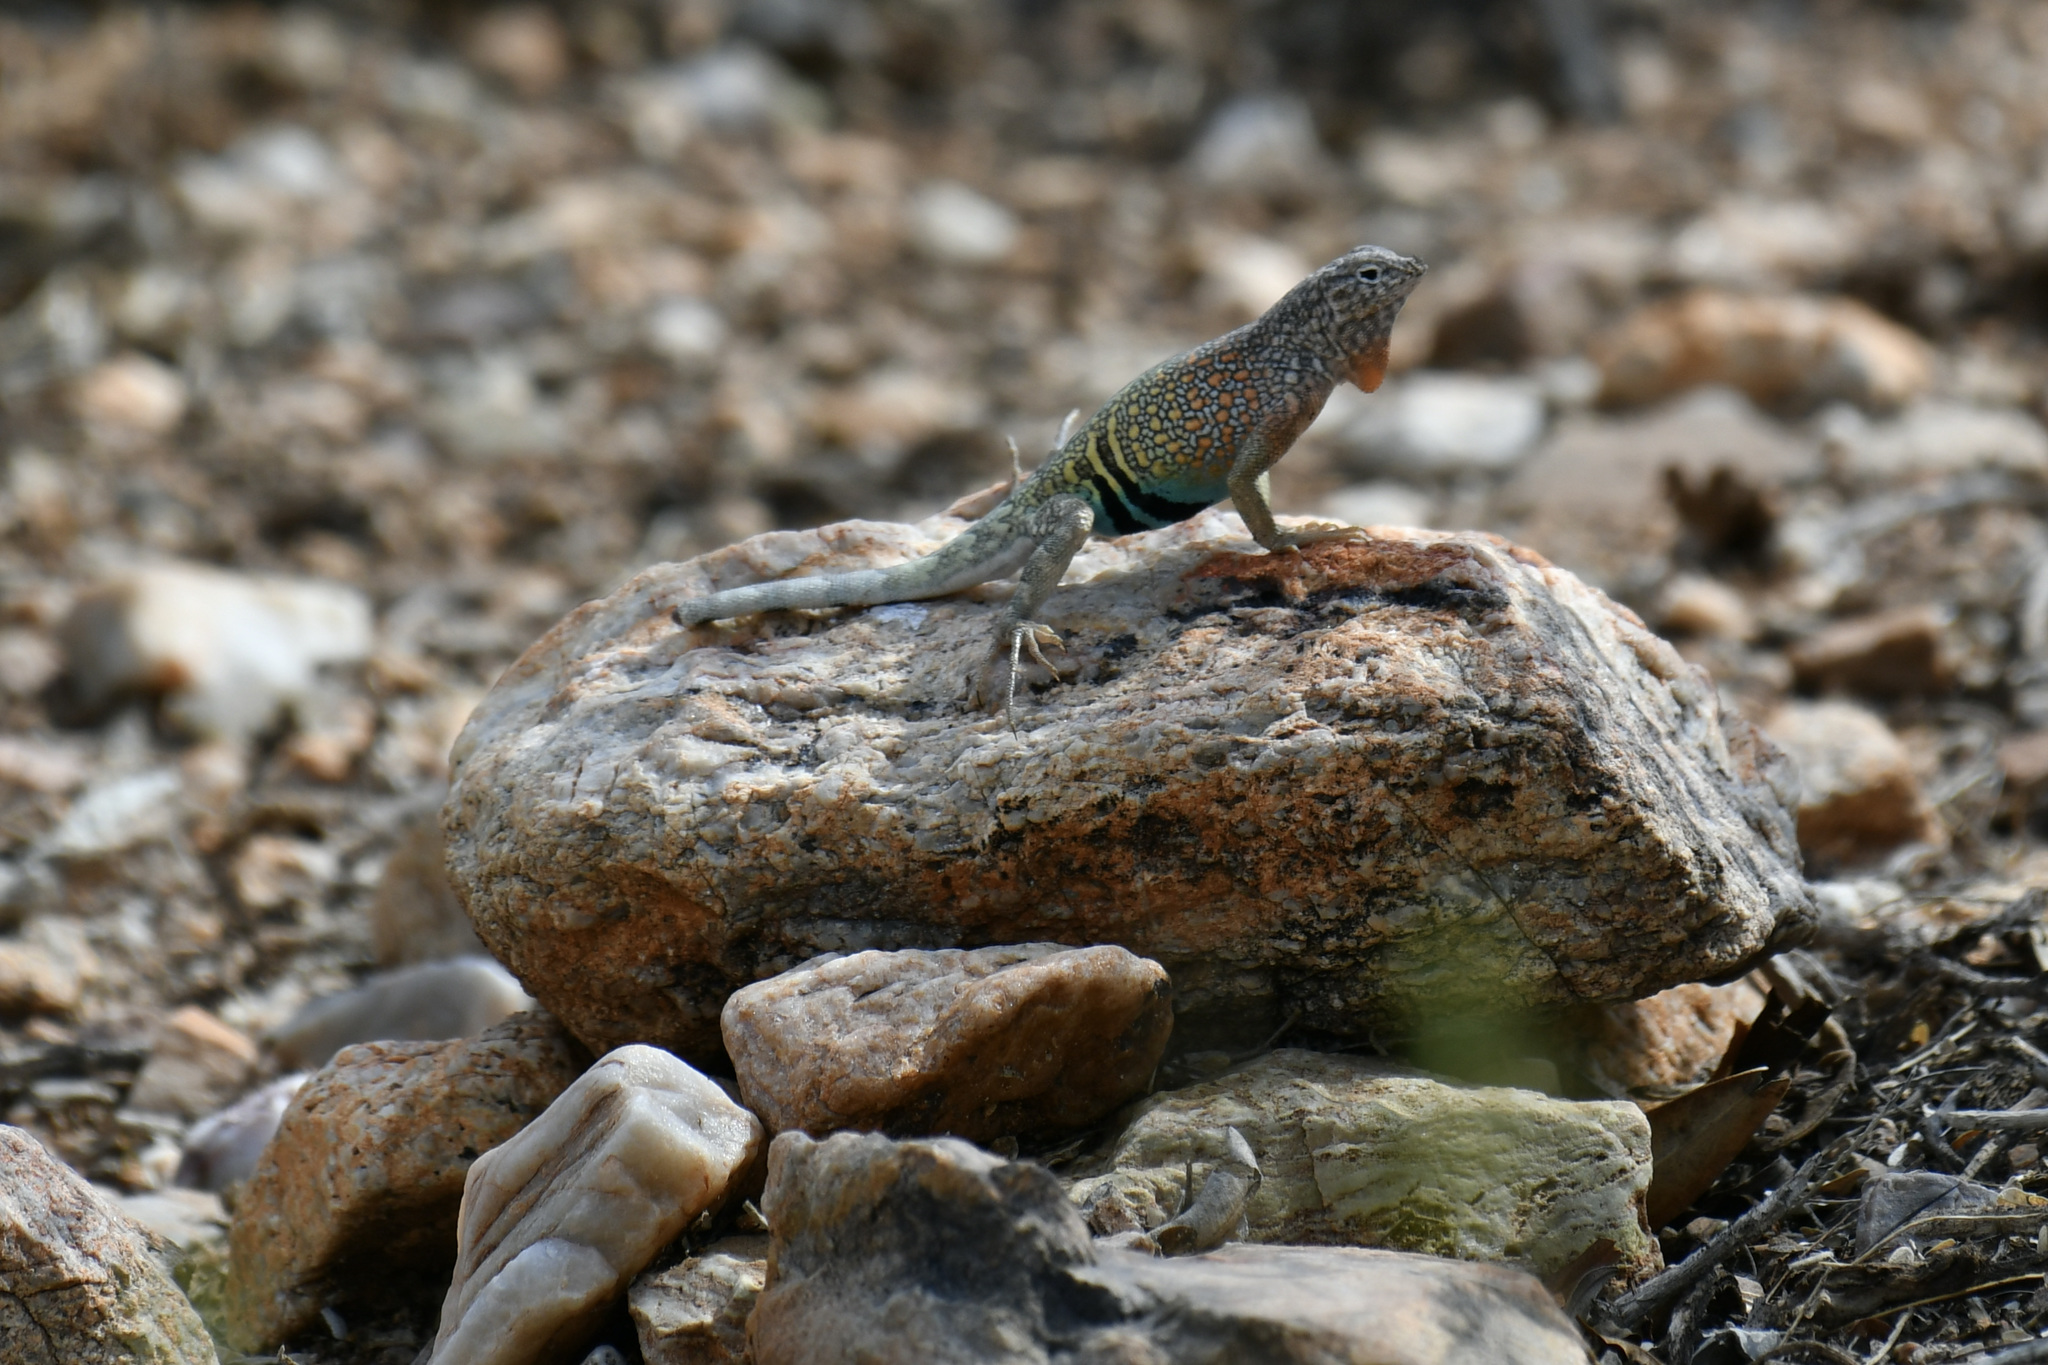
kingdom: Animalia
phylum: Chordata
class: Squamata
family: Phrynosomatidae
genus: Cophosaurus
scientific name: Cophosaurus texanus
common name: Greater earless lizard
